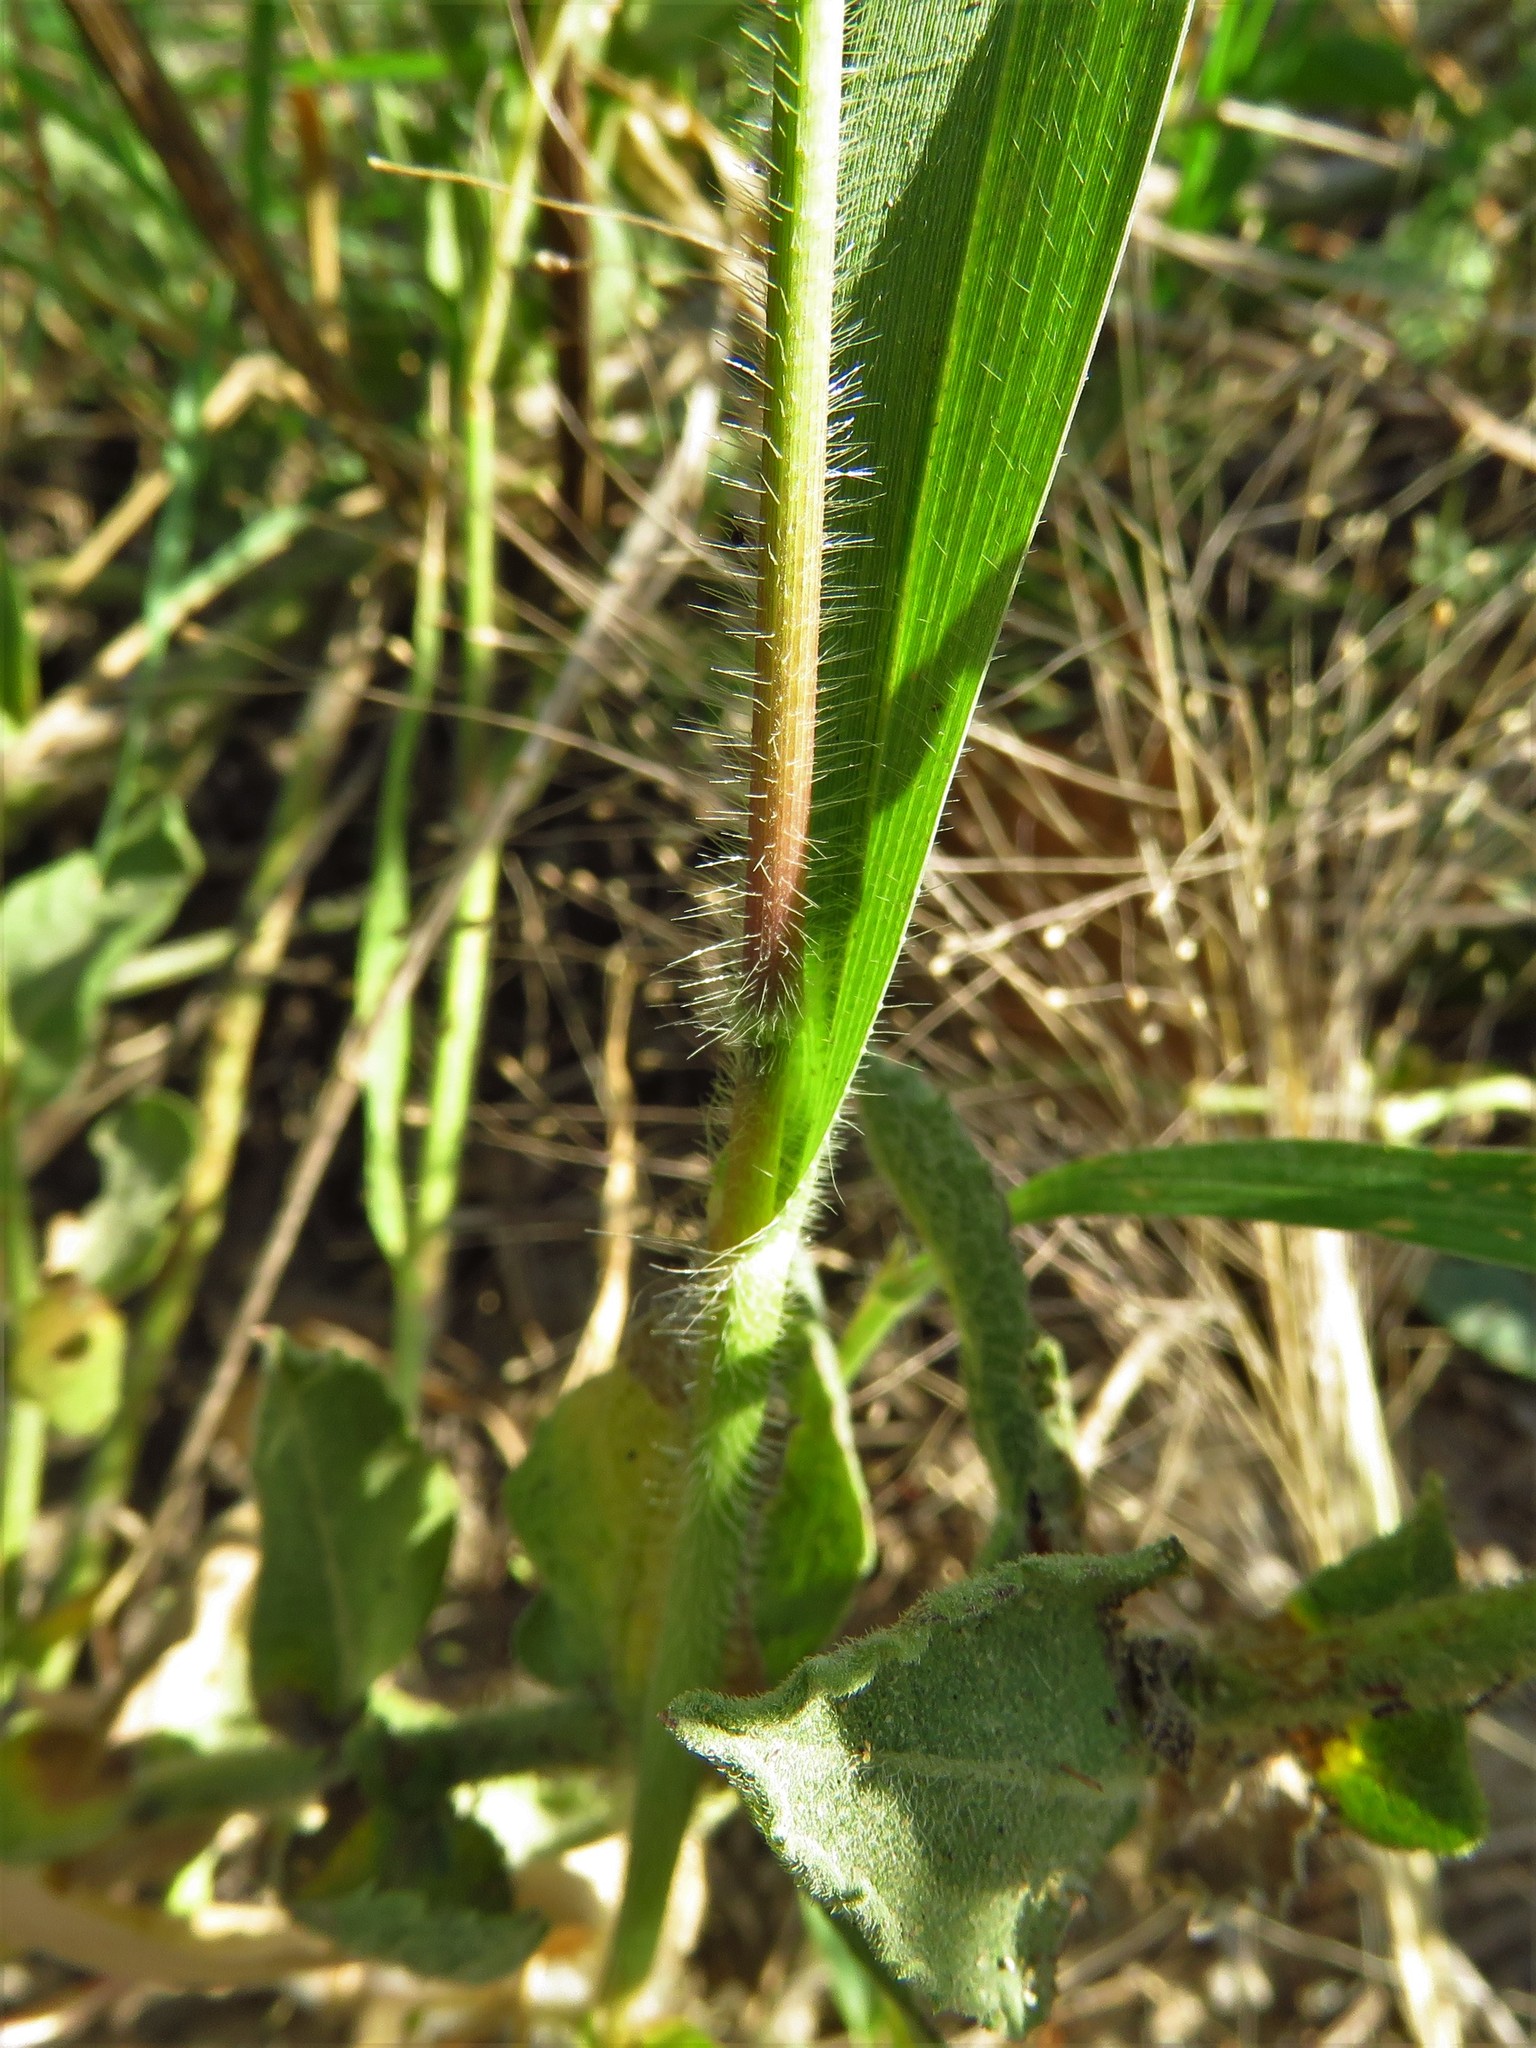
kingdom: Plantae
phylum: Tracheophyta
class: Liliopsida
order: Poales
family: Poaceae
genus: Panicum
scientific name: Panicum capillare
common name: Witch-grass
